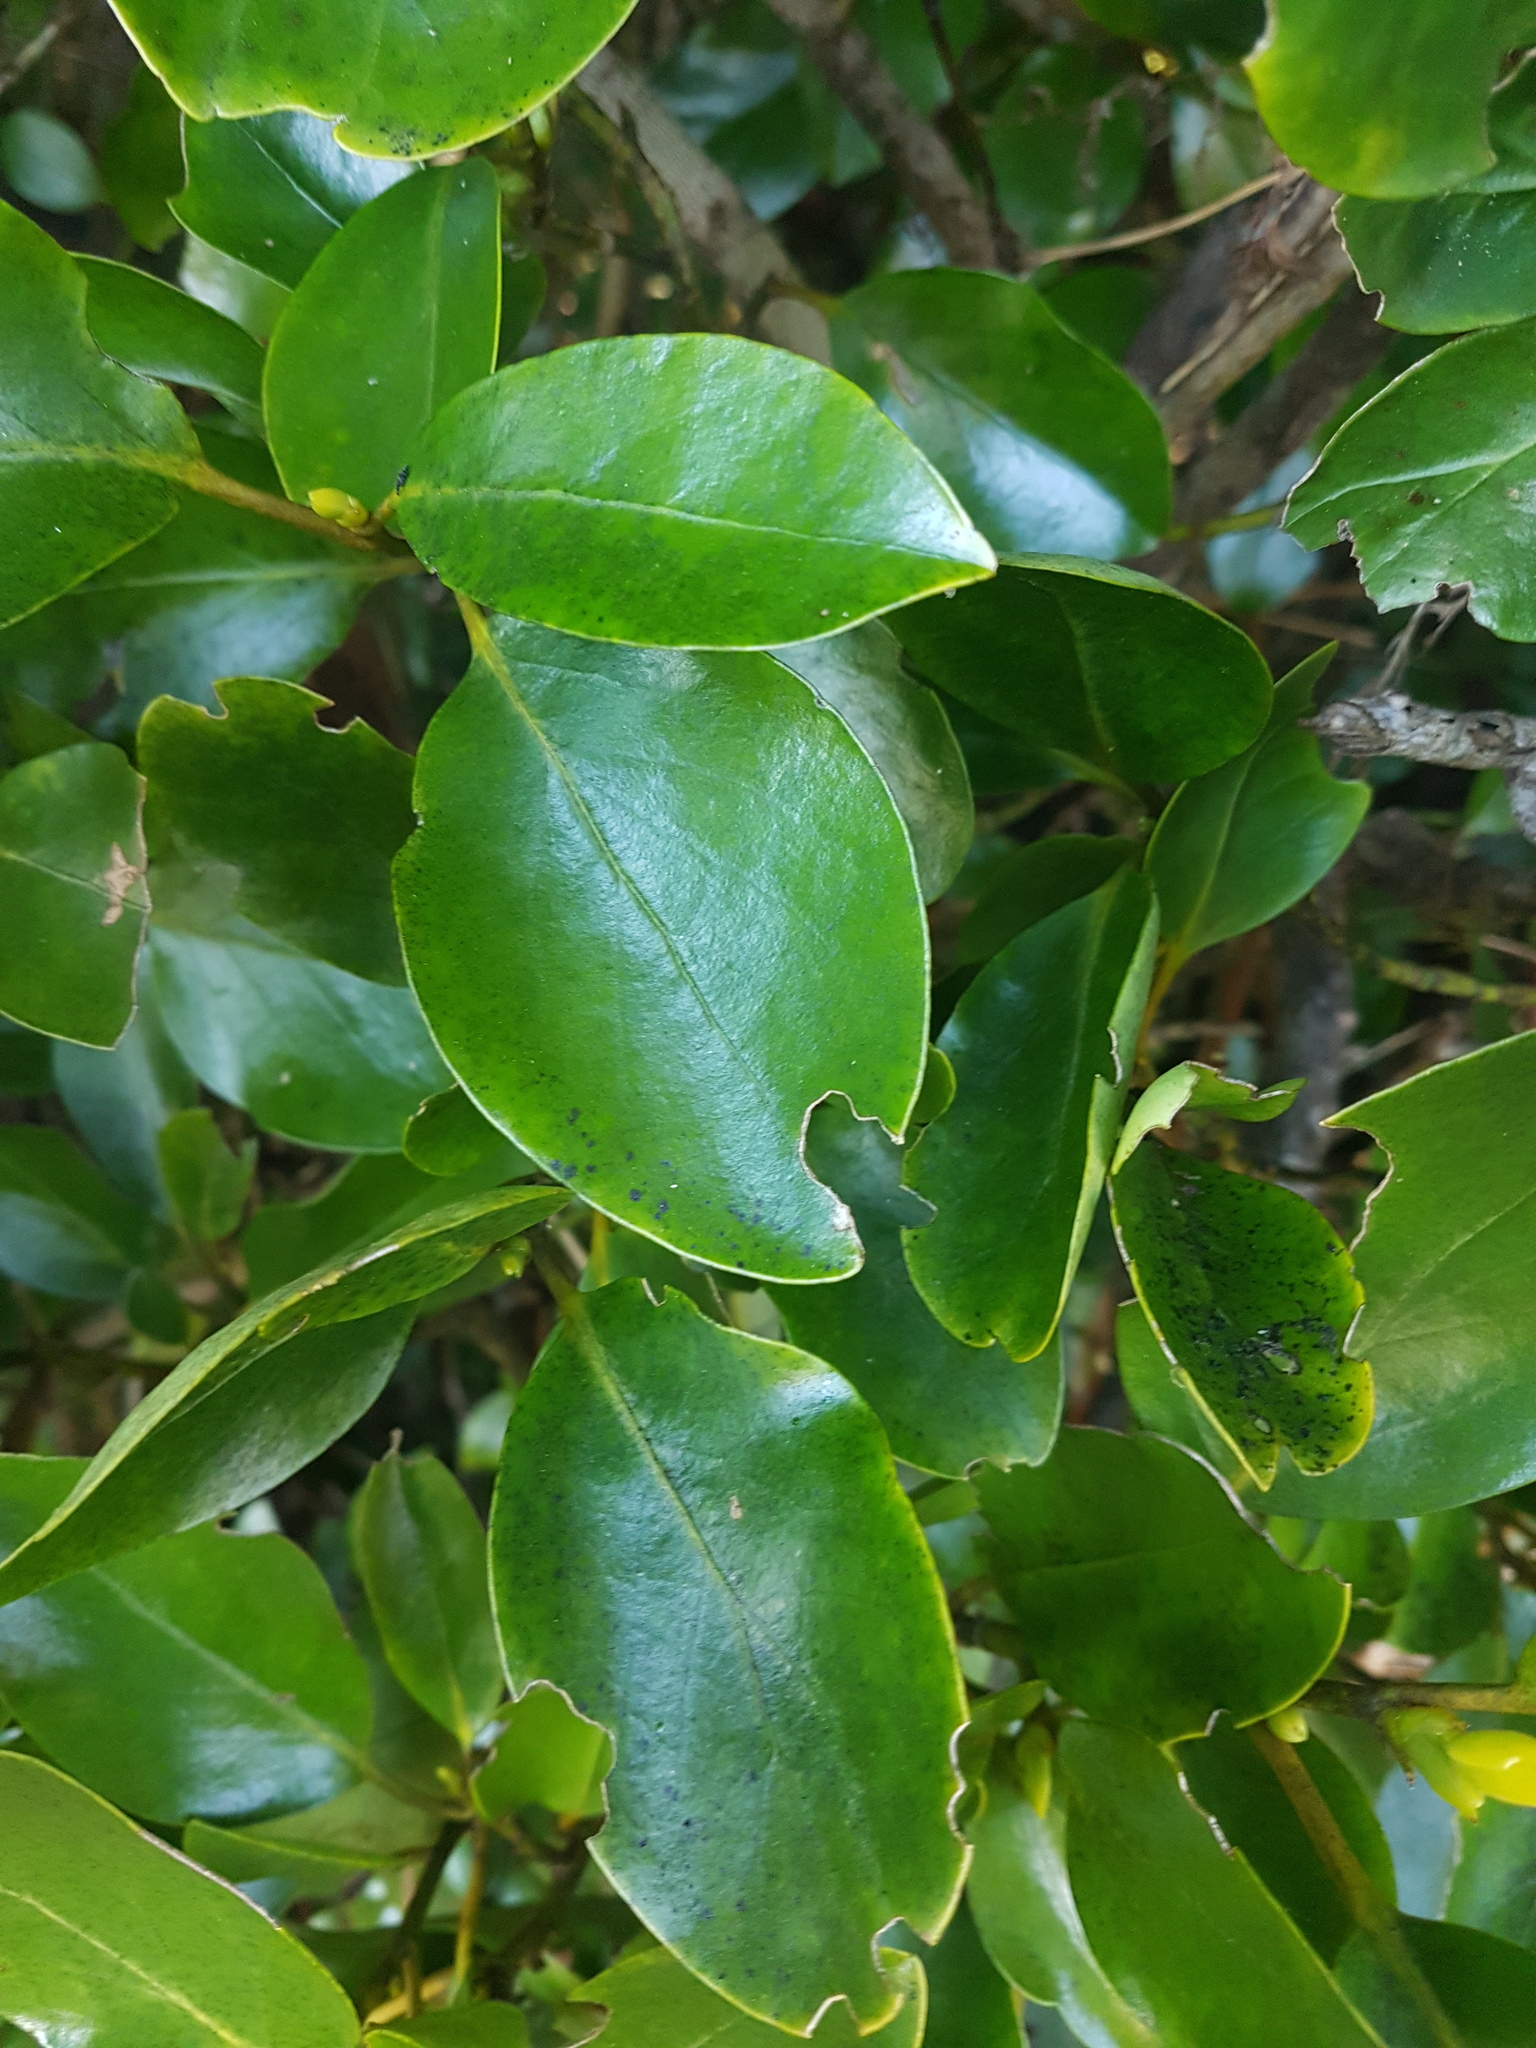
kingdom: Plantae
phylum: Tracheophyta
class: Magnoliopsida
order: Apiales
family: Griseliniaceae
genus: Griselinia
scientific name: Griselinia littoralis
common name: New zealand broadleaf
